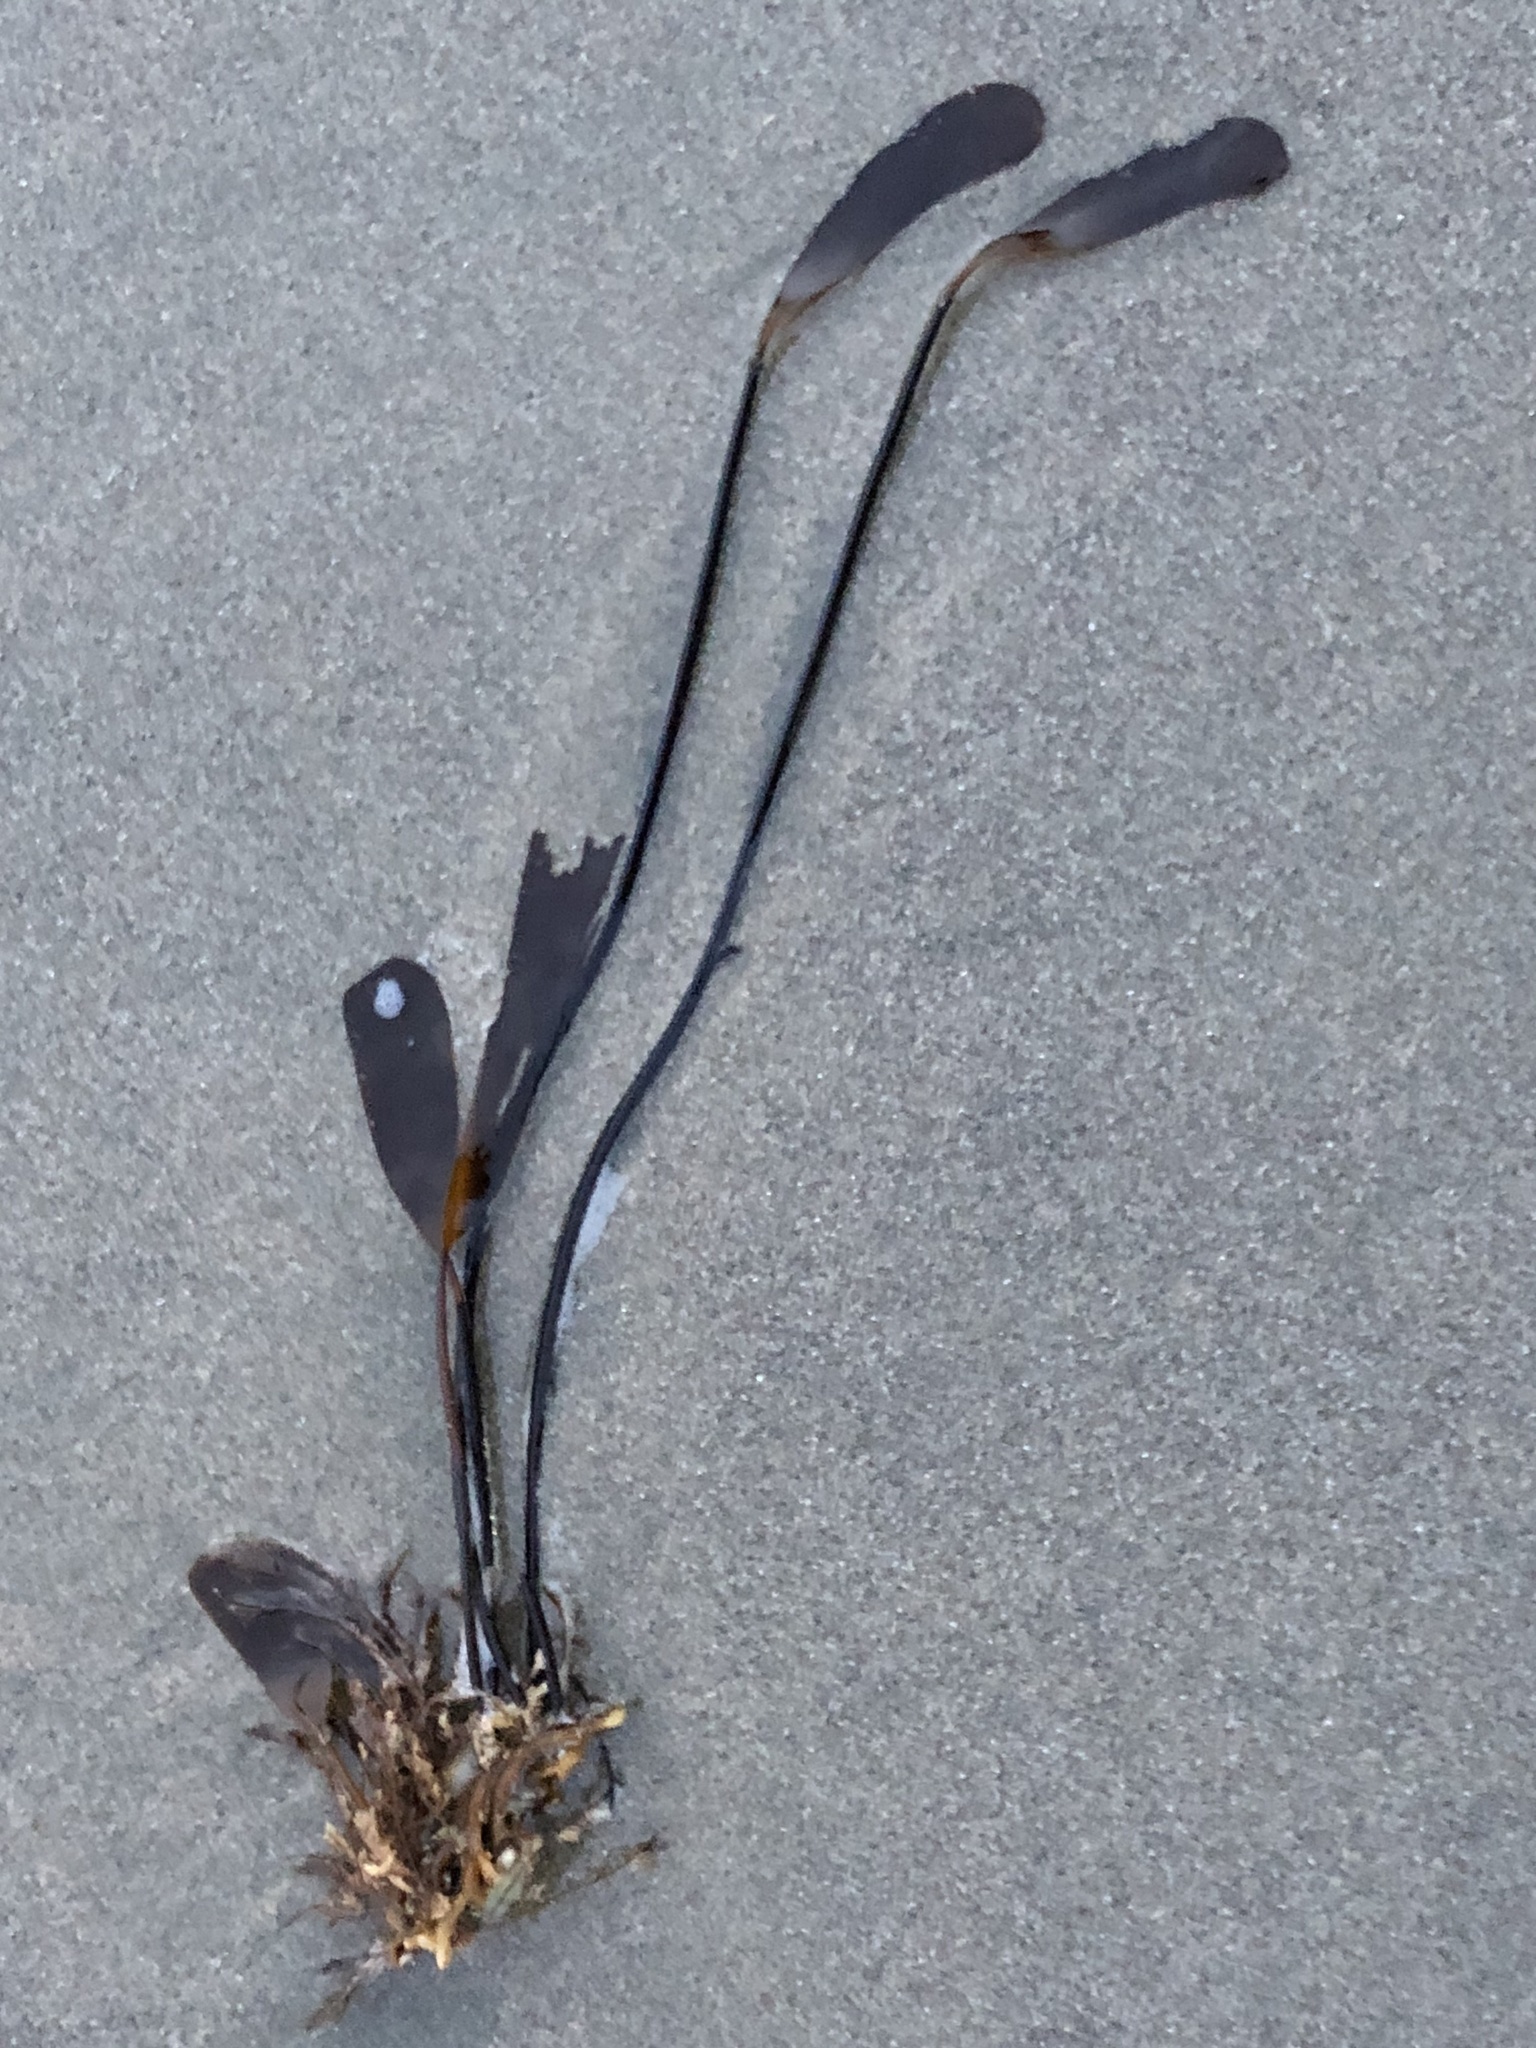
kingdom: Chromista
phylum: Ochrophyta
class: Phaeophyceae
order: Laminariales
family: Laminariaceae
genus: Laminaria
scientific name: Laminaria sinclairii
